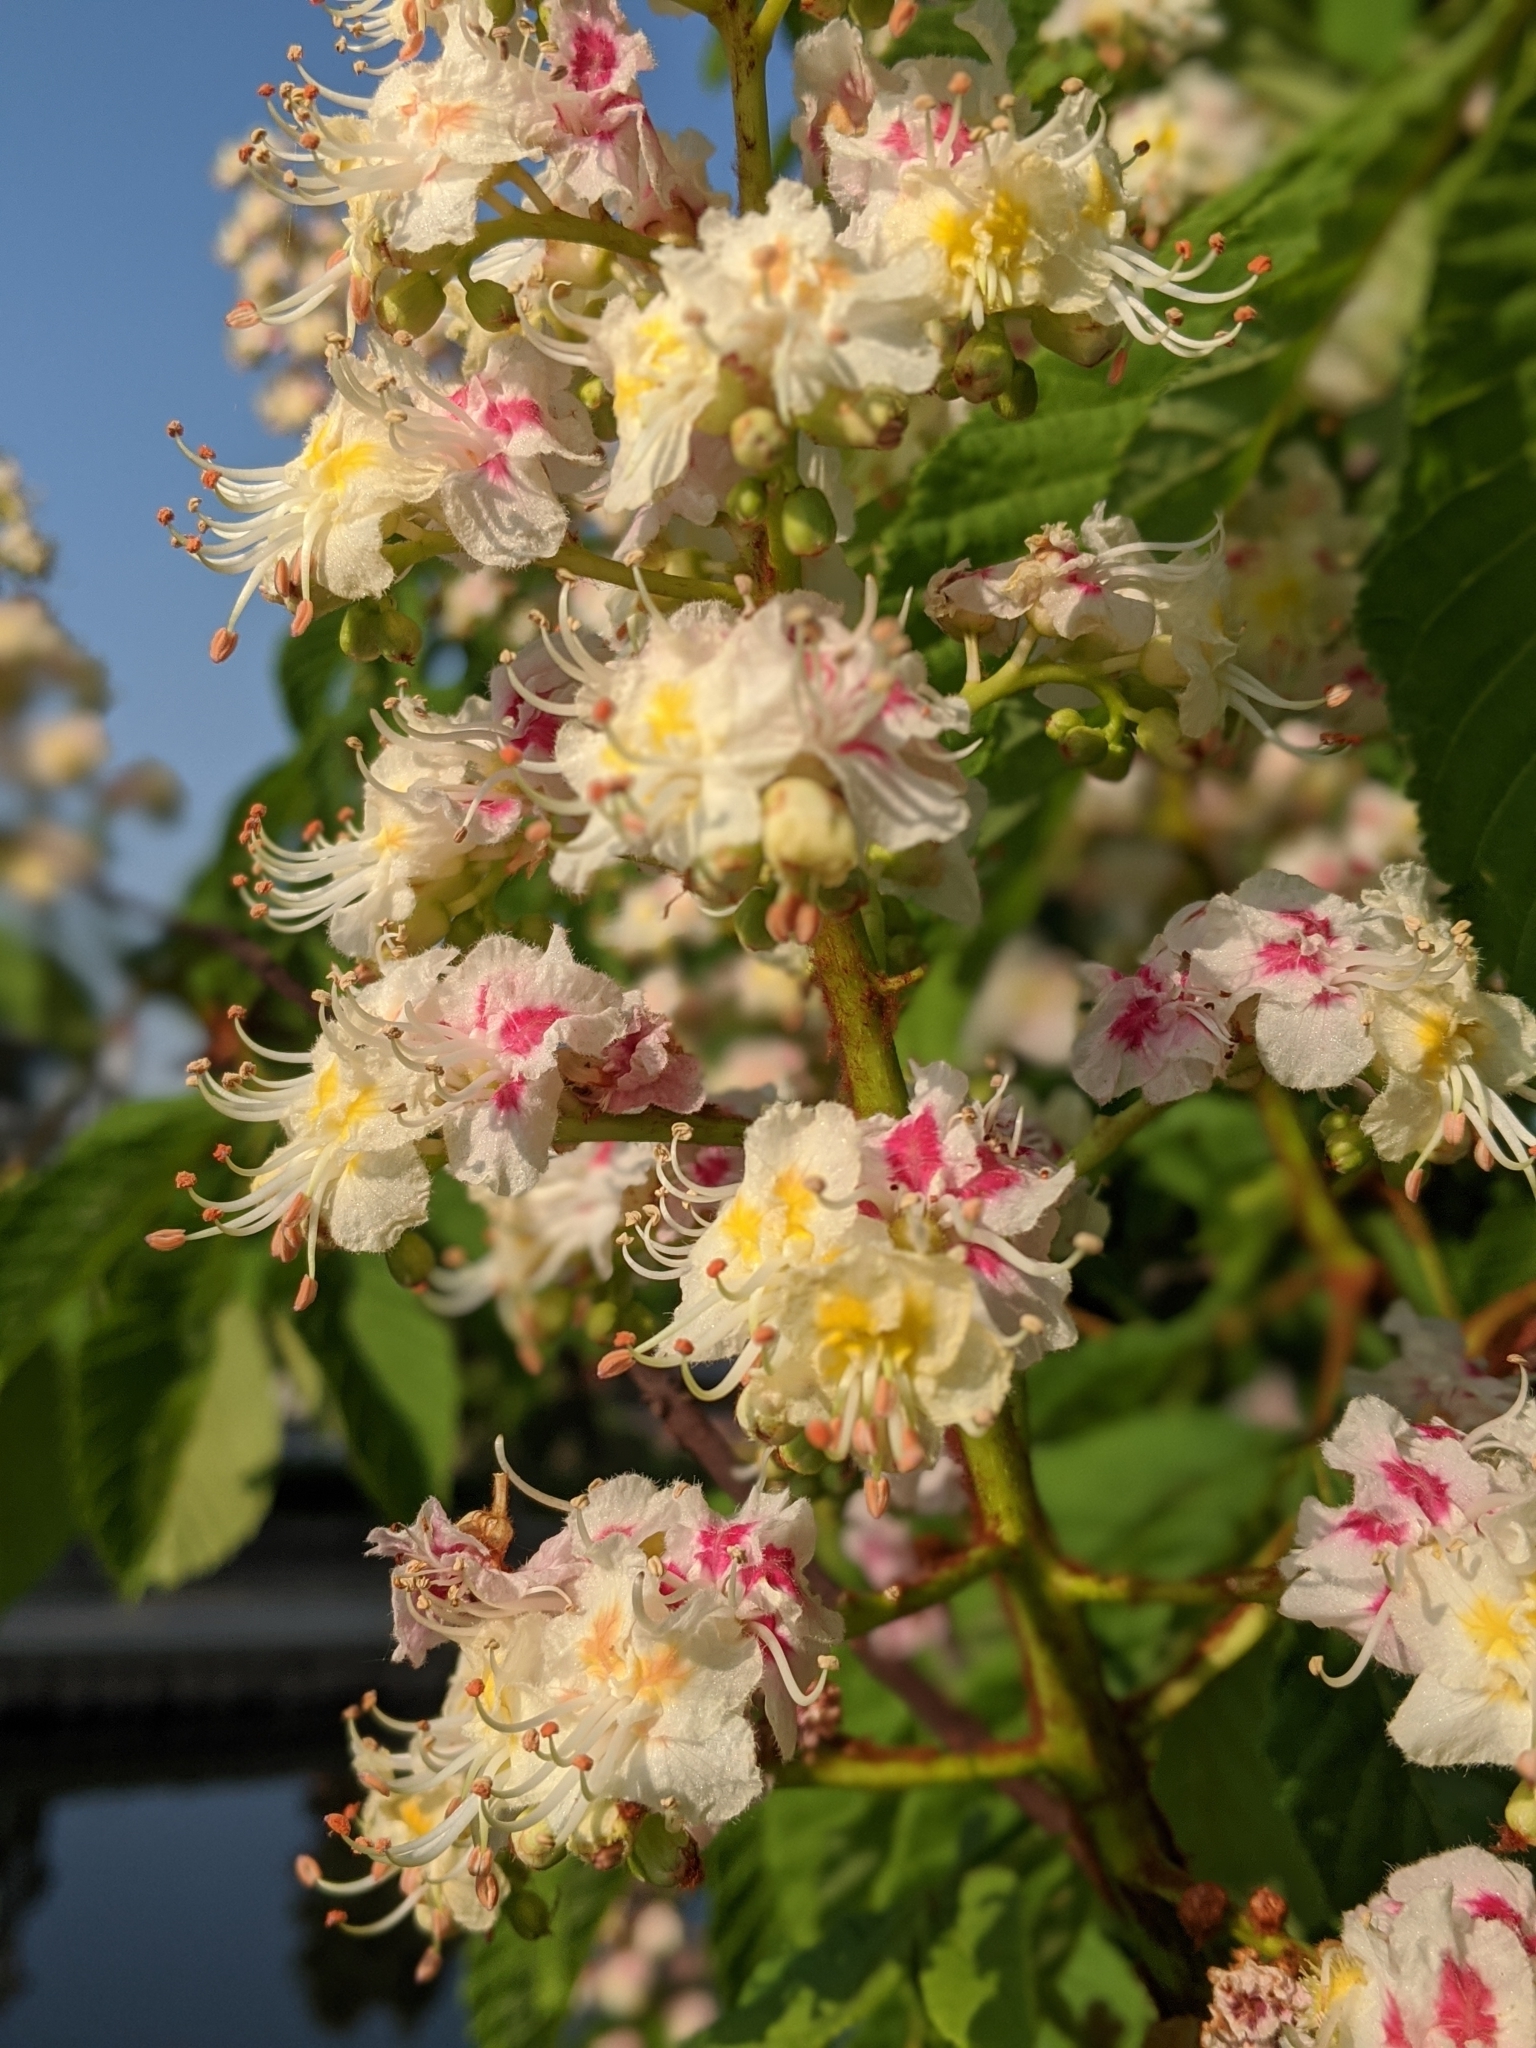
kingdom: Plantae
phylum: Tracheophyta
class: Magnoliopsida
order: Sapindales
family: Sapindaceae
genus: Aesculus
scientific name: Aesculus hippocastanum
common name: Horse-chestnut
